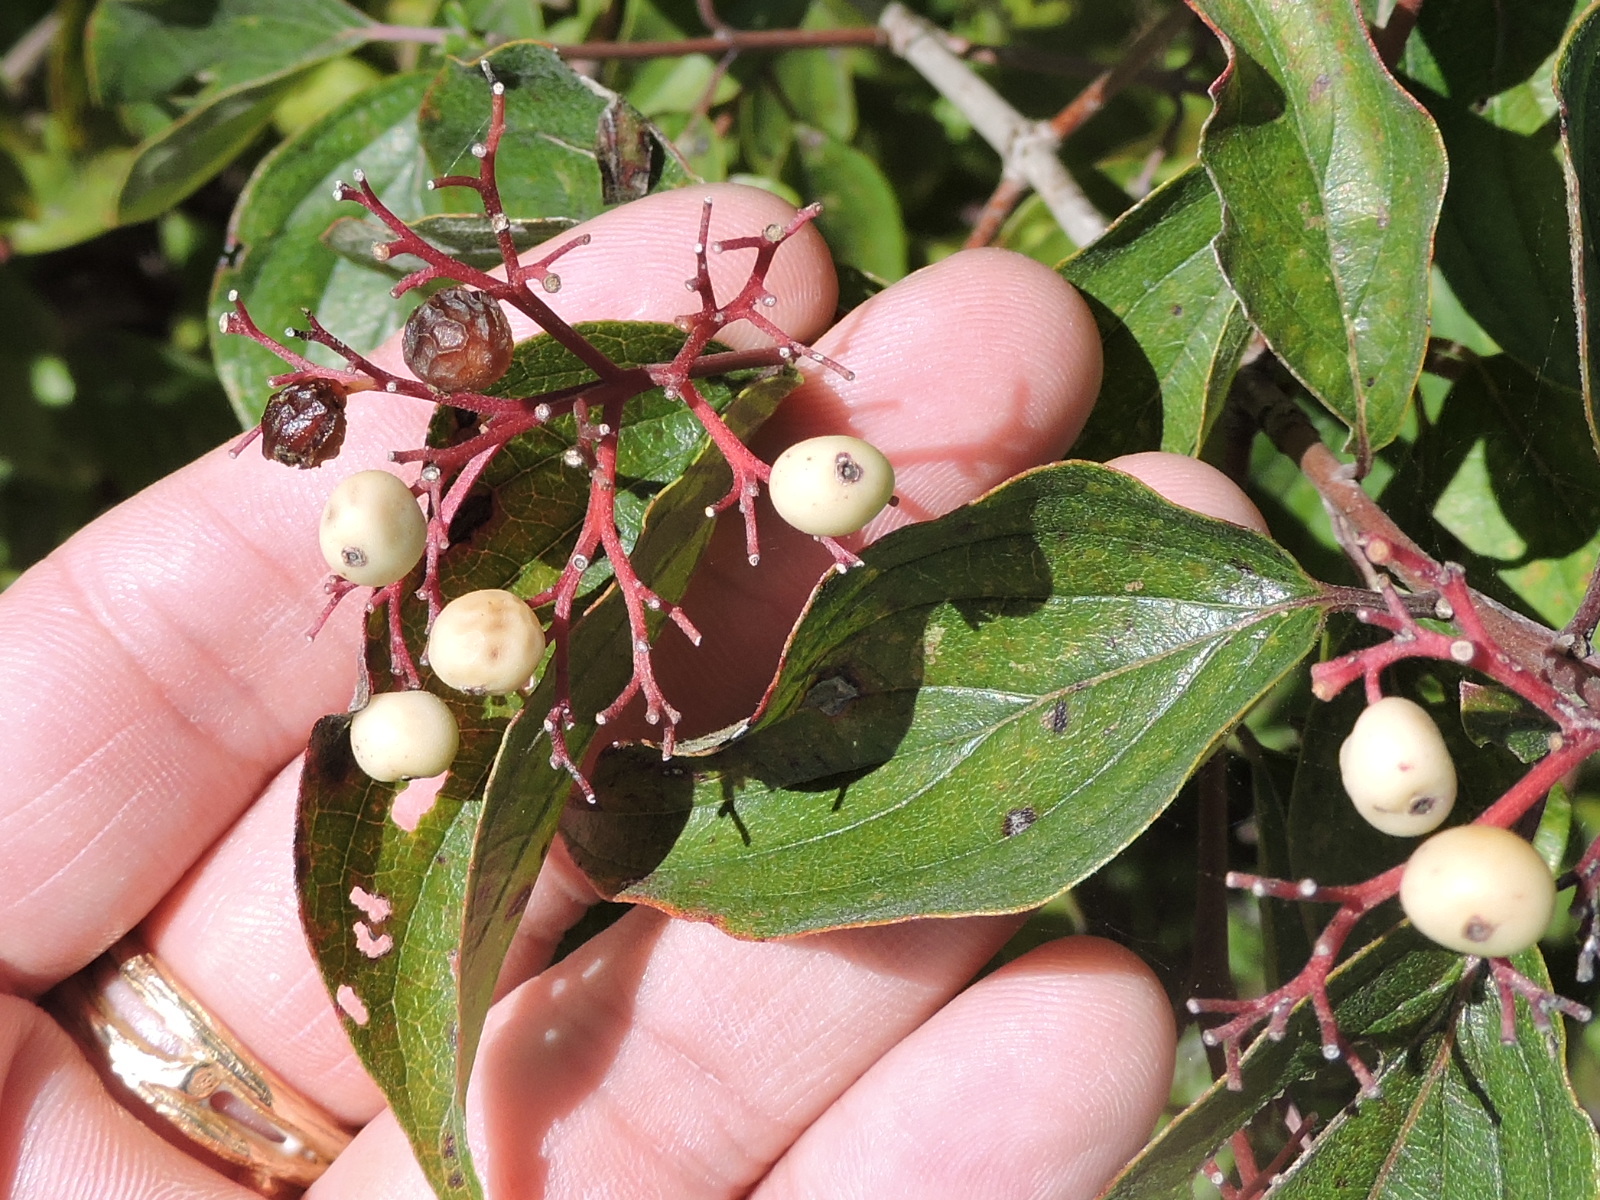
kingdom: Plantae
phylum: Tracheophyta
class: Magnoliopsida
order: Cornales
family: Cornaceae
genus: Cornus
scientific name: Cornus drummondii
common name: Rough-leaf dogwood
